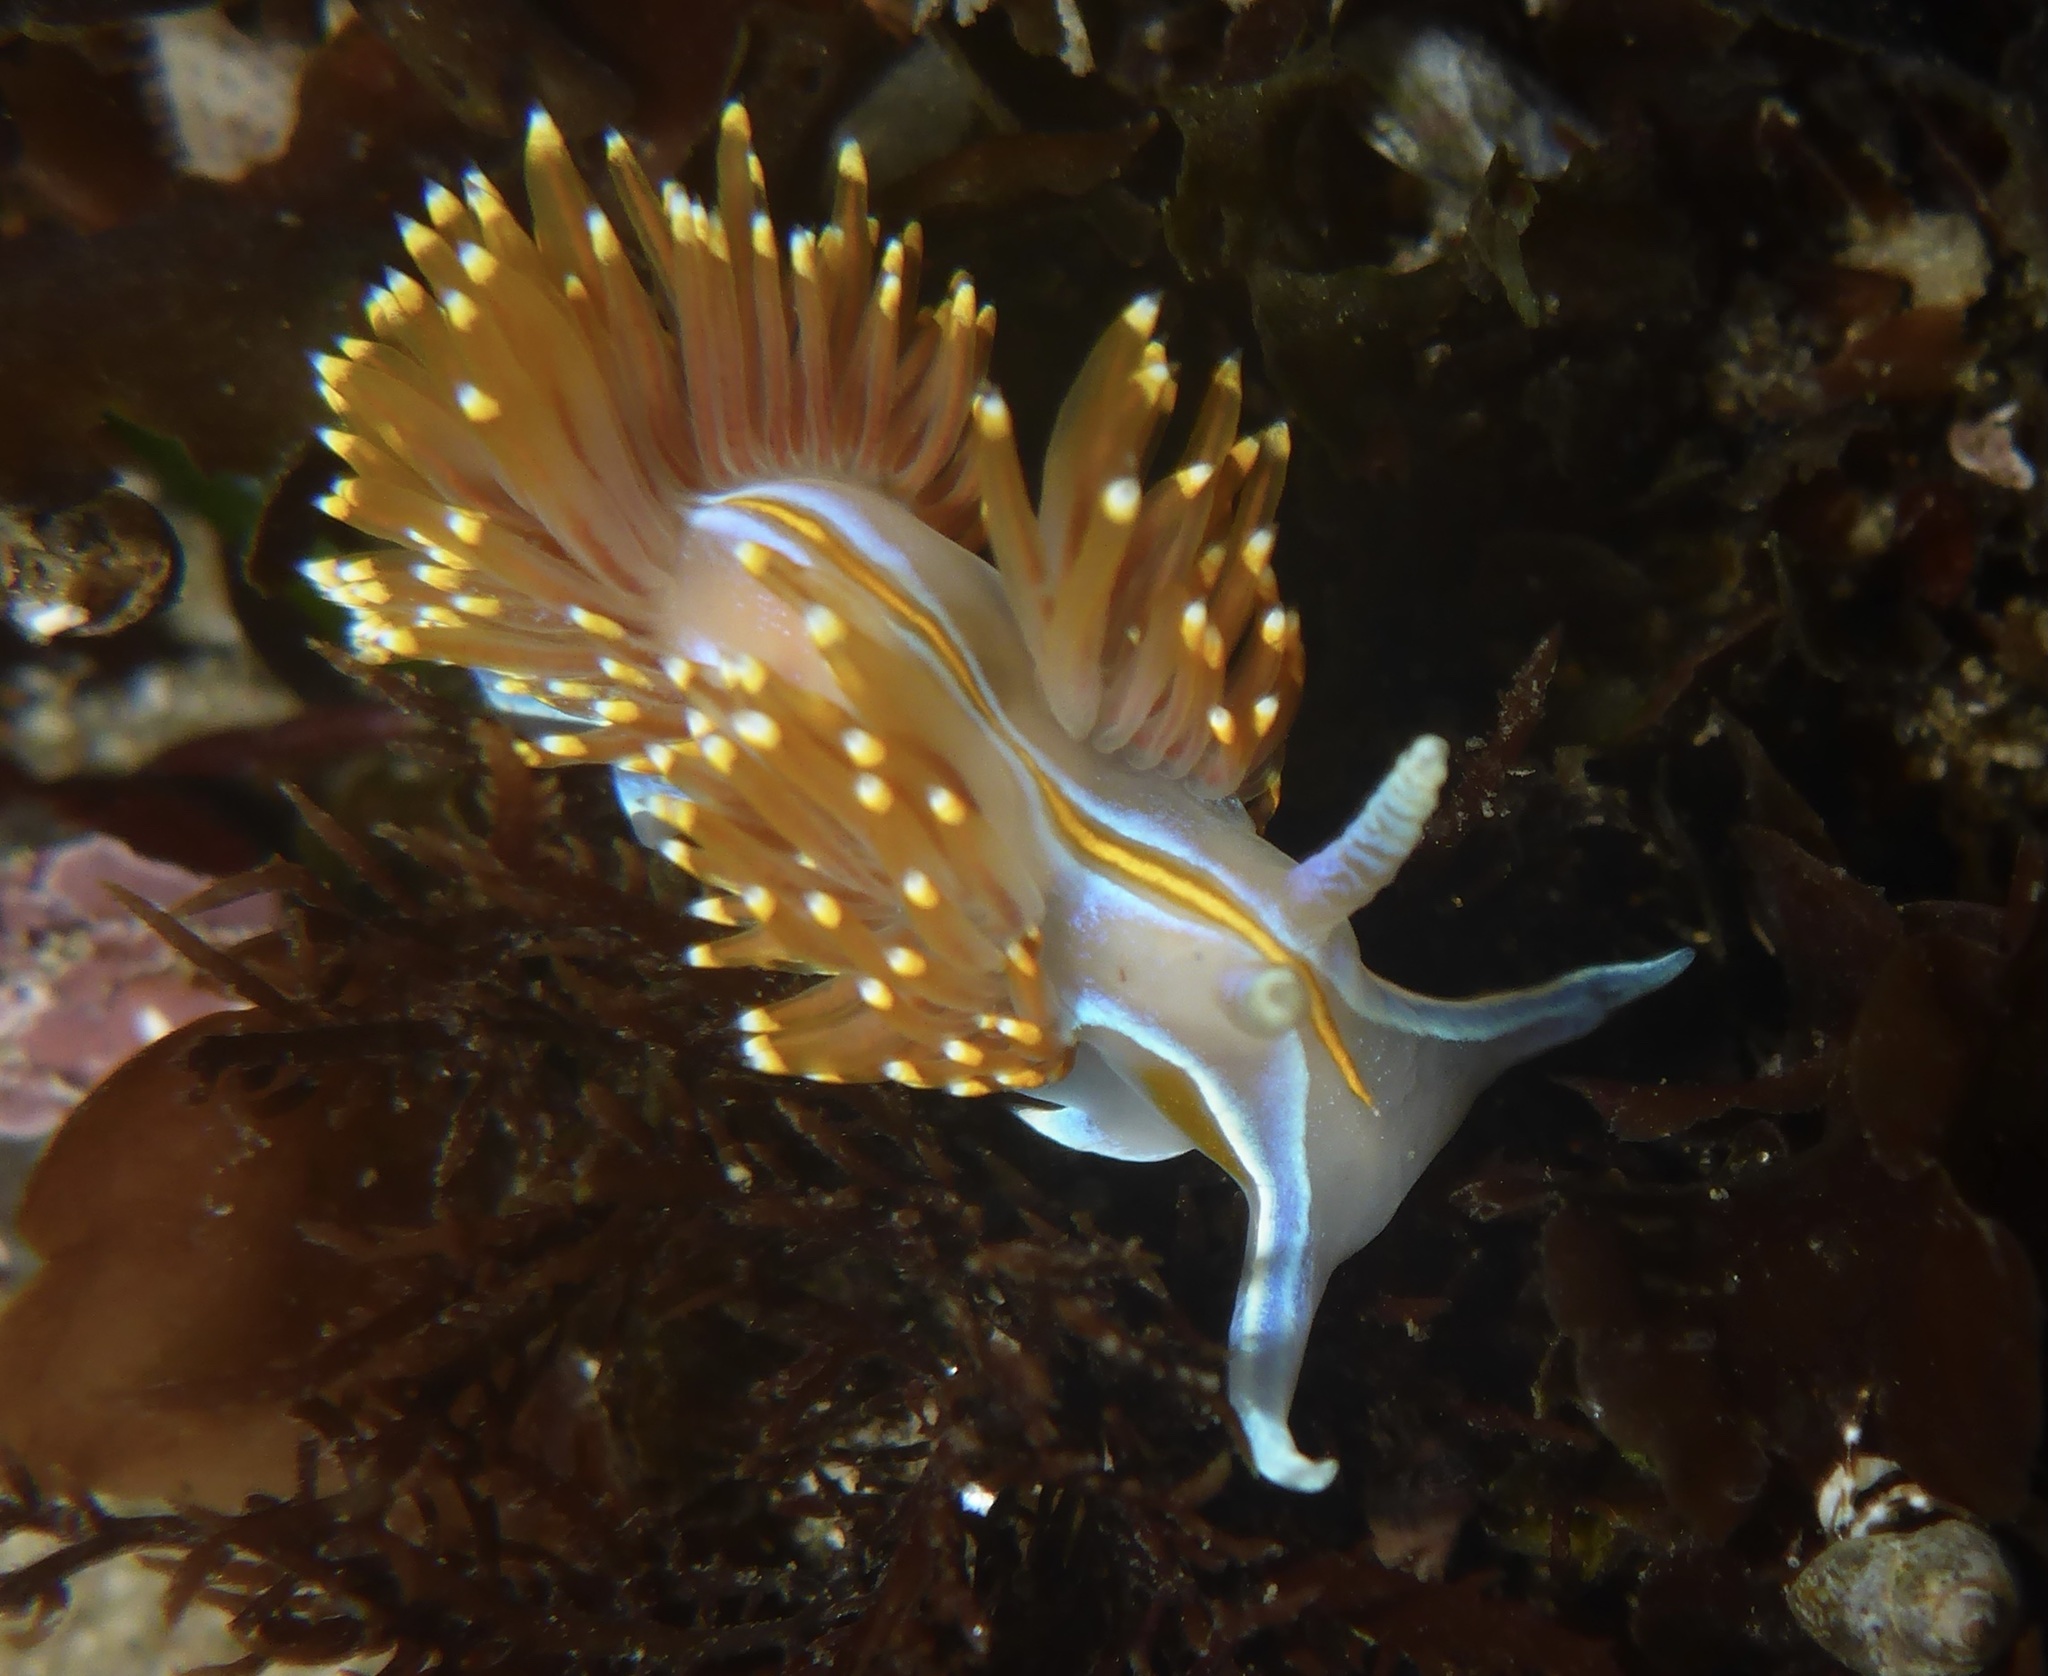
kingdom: Animalia
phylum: Mollusca
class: Gastropoda
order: Nudibranchia
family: Myrrhinidae
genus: Hermissenda
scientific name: Hermissenda opalescens
